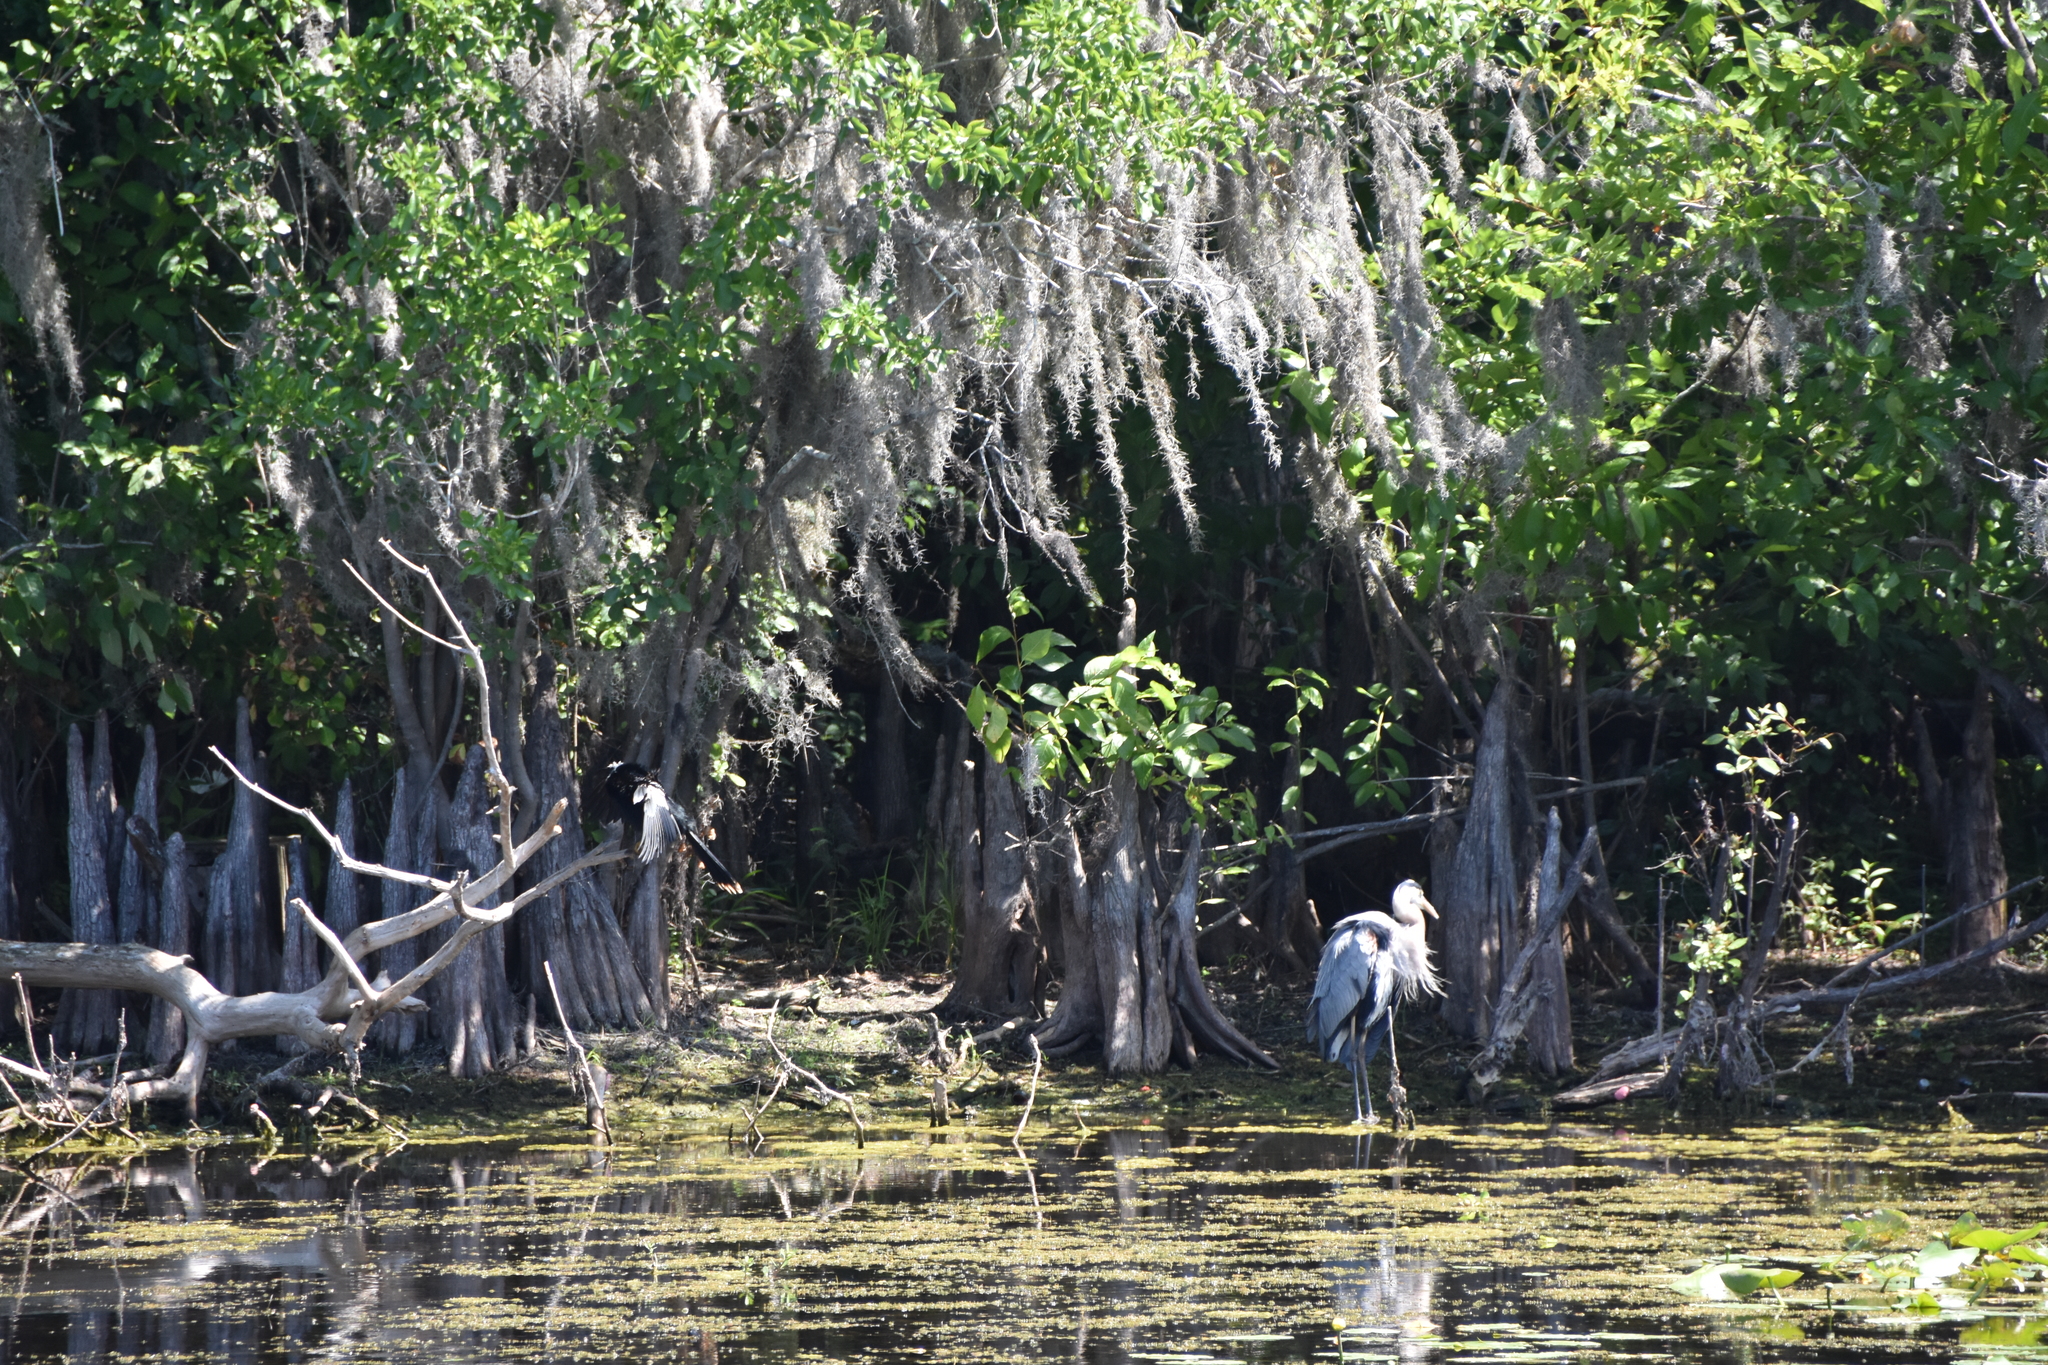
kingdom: Animalia
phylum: Chordata
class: Aves
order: Pelecaniformes
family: Ardeidae
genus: Ardea
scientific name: Ardea herodias
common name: Great blue heron
